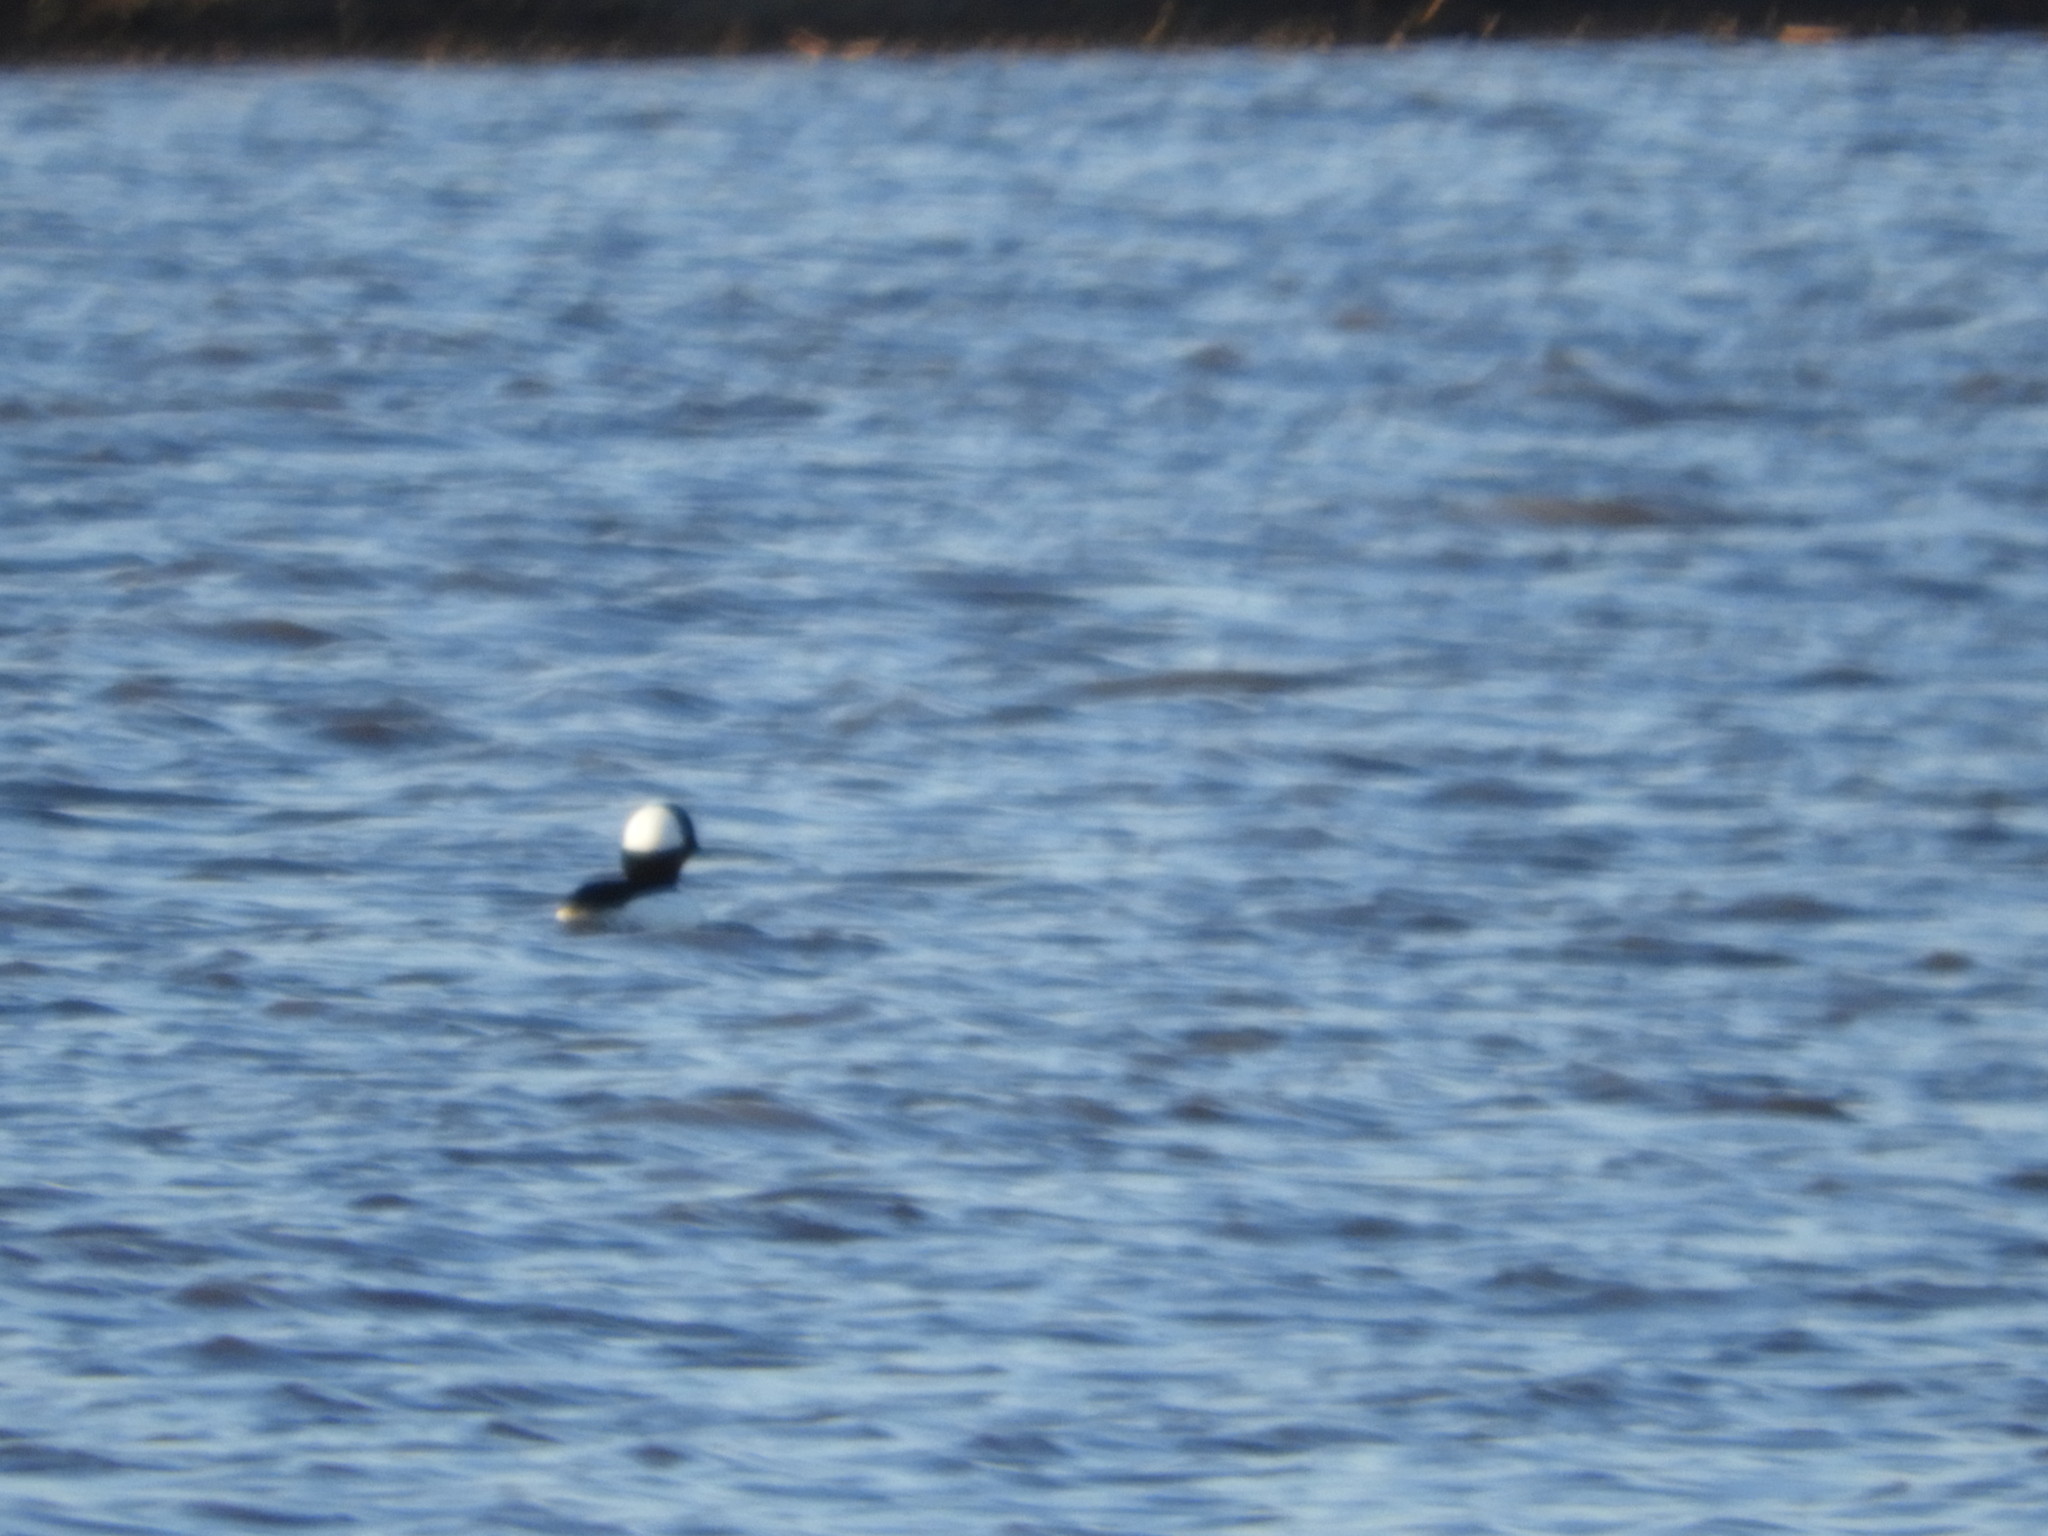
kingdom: Animalia
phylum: Chordata
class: Aves
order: Anseriformes
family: Anatidae
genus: Bucephala
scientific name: Bucephala albeola
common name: Bufflehead
